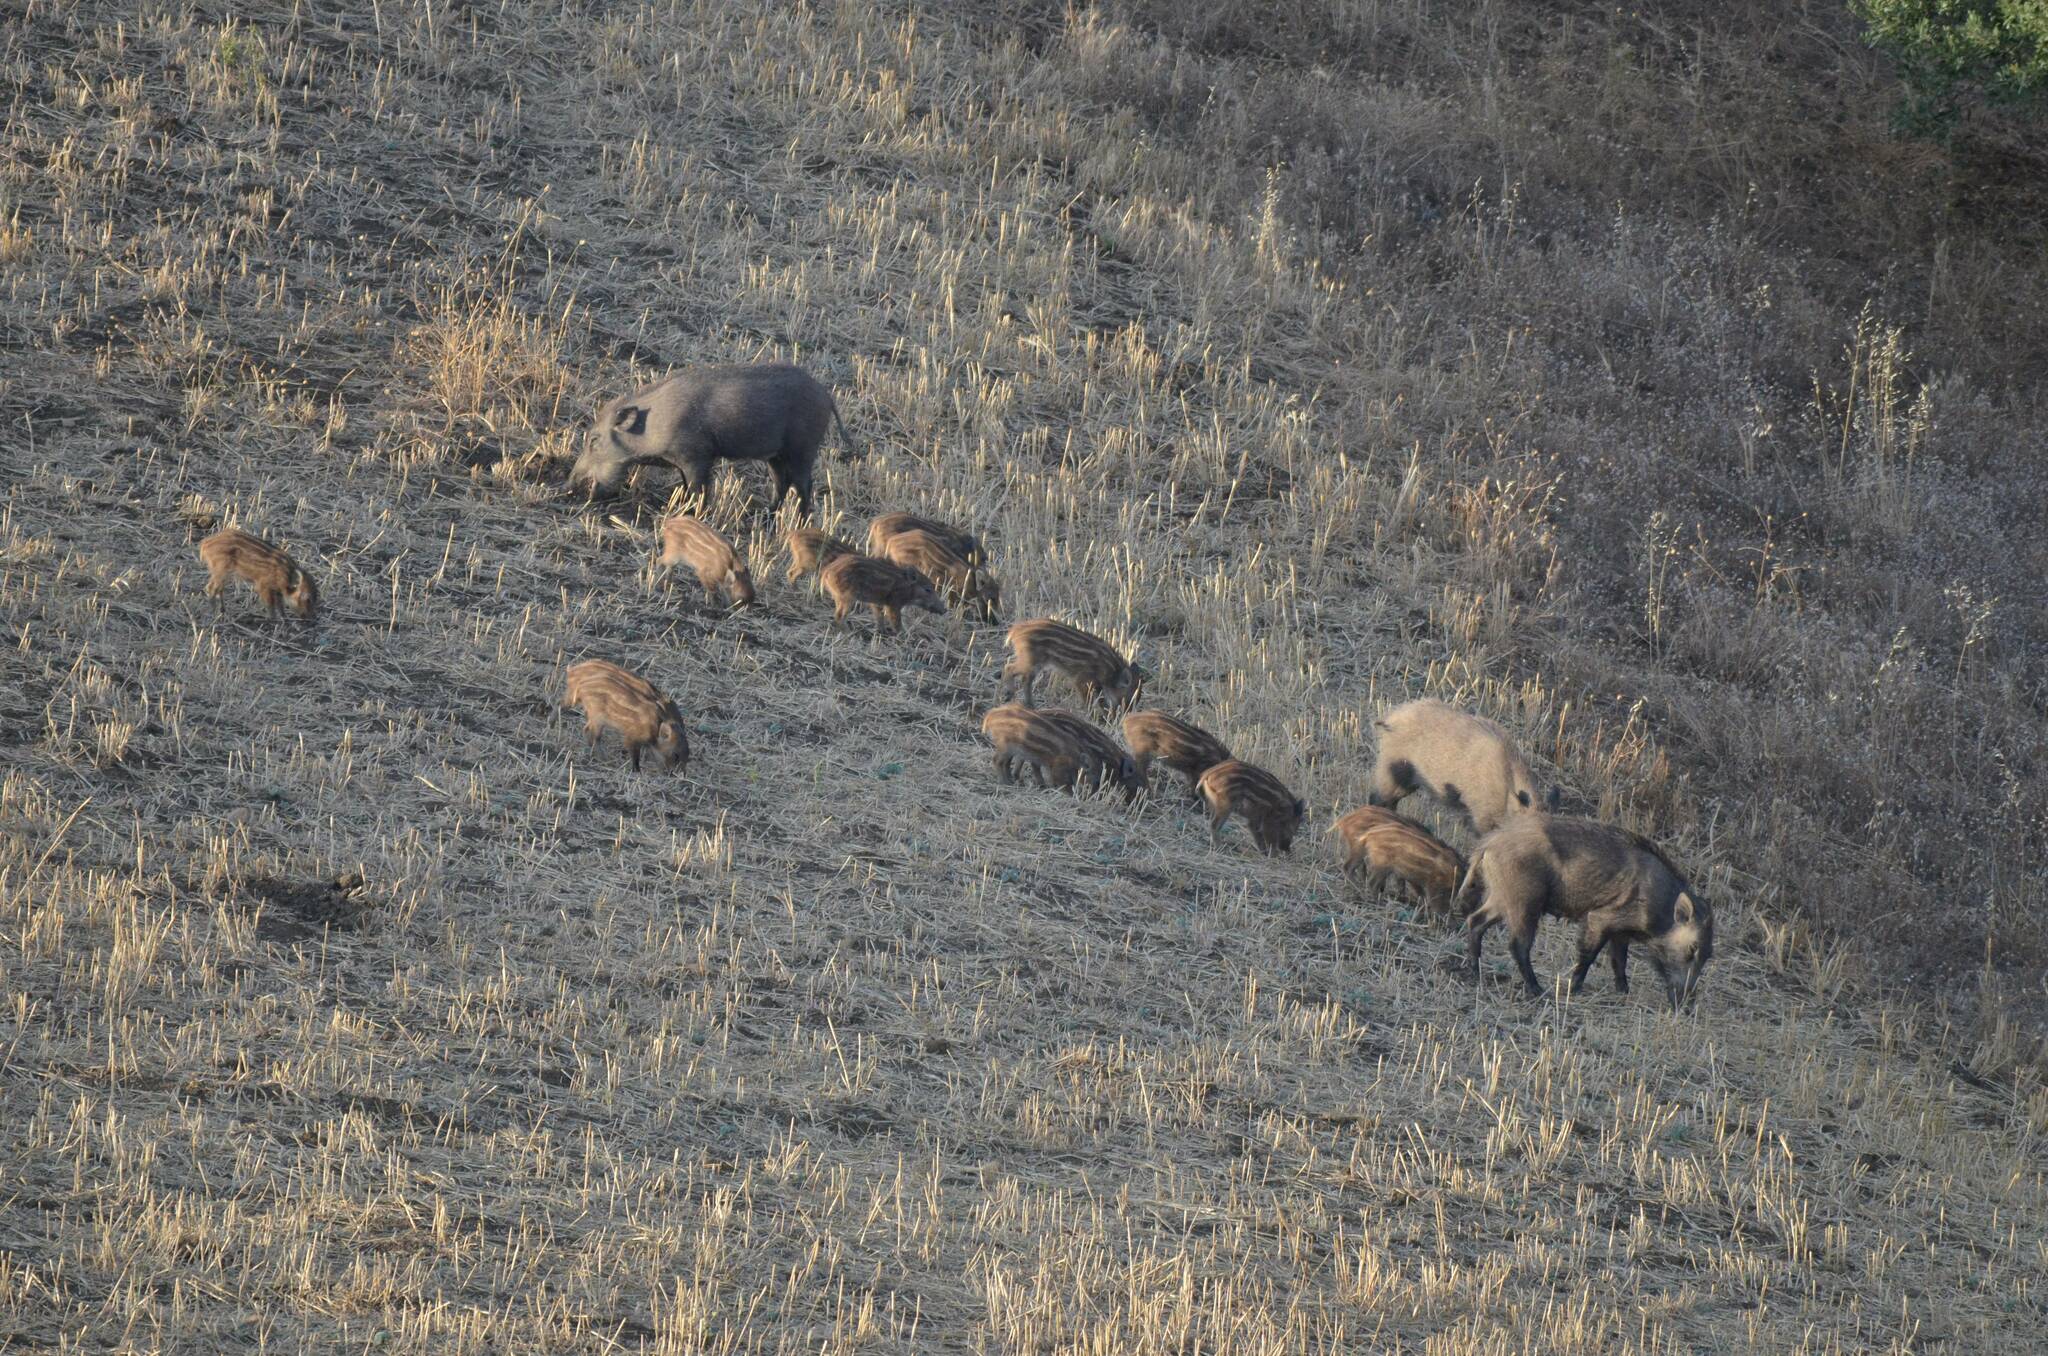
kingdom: Animalia
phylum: Chordata
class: Mammalia
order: Artiodactyla
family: Suidae
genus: Sus
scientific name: Sus scrofa
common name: Wild boar
